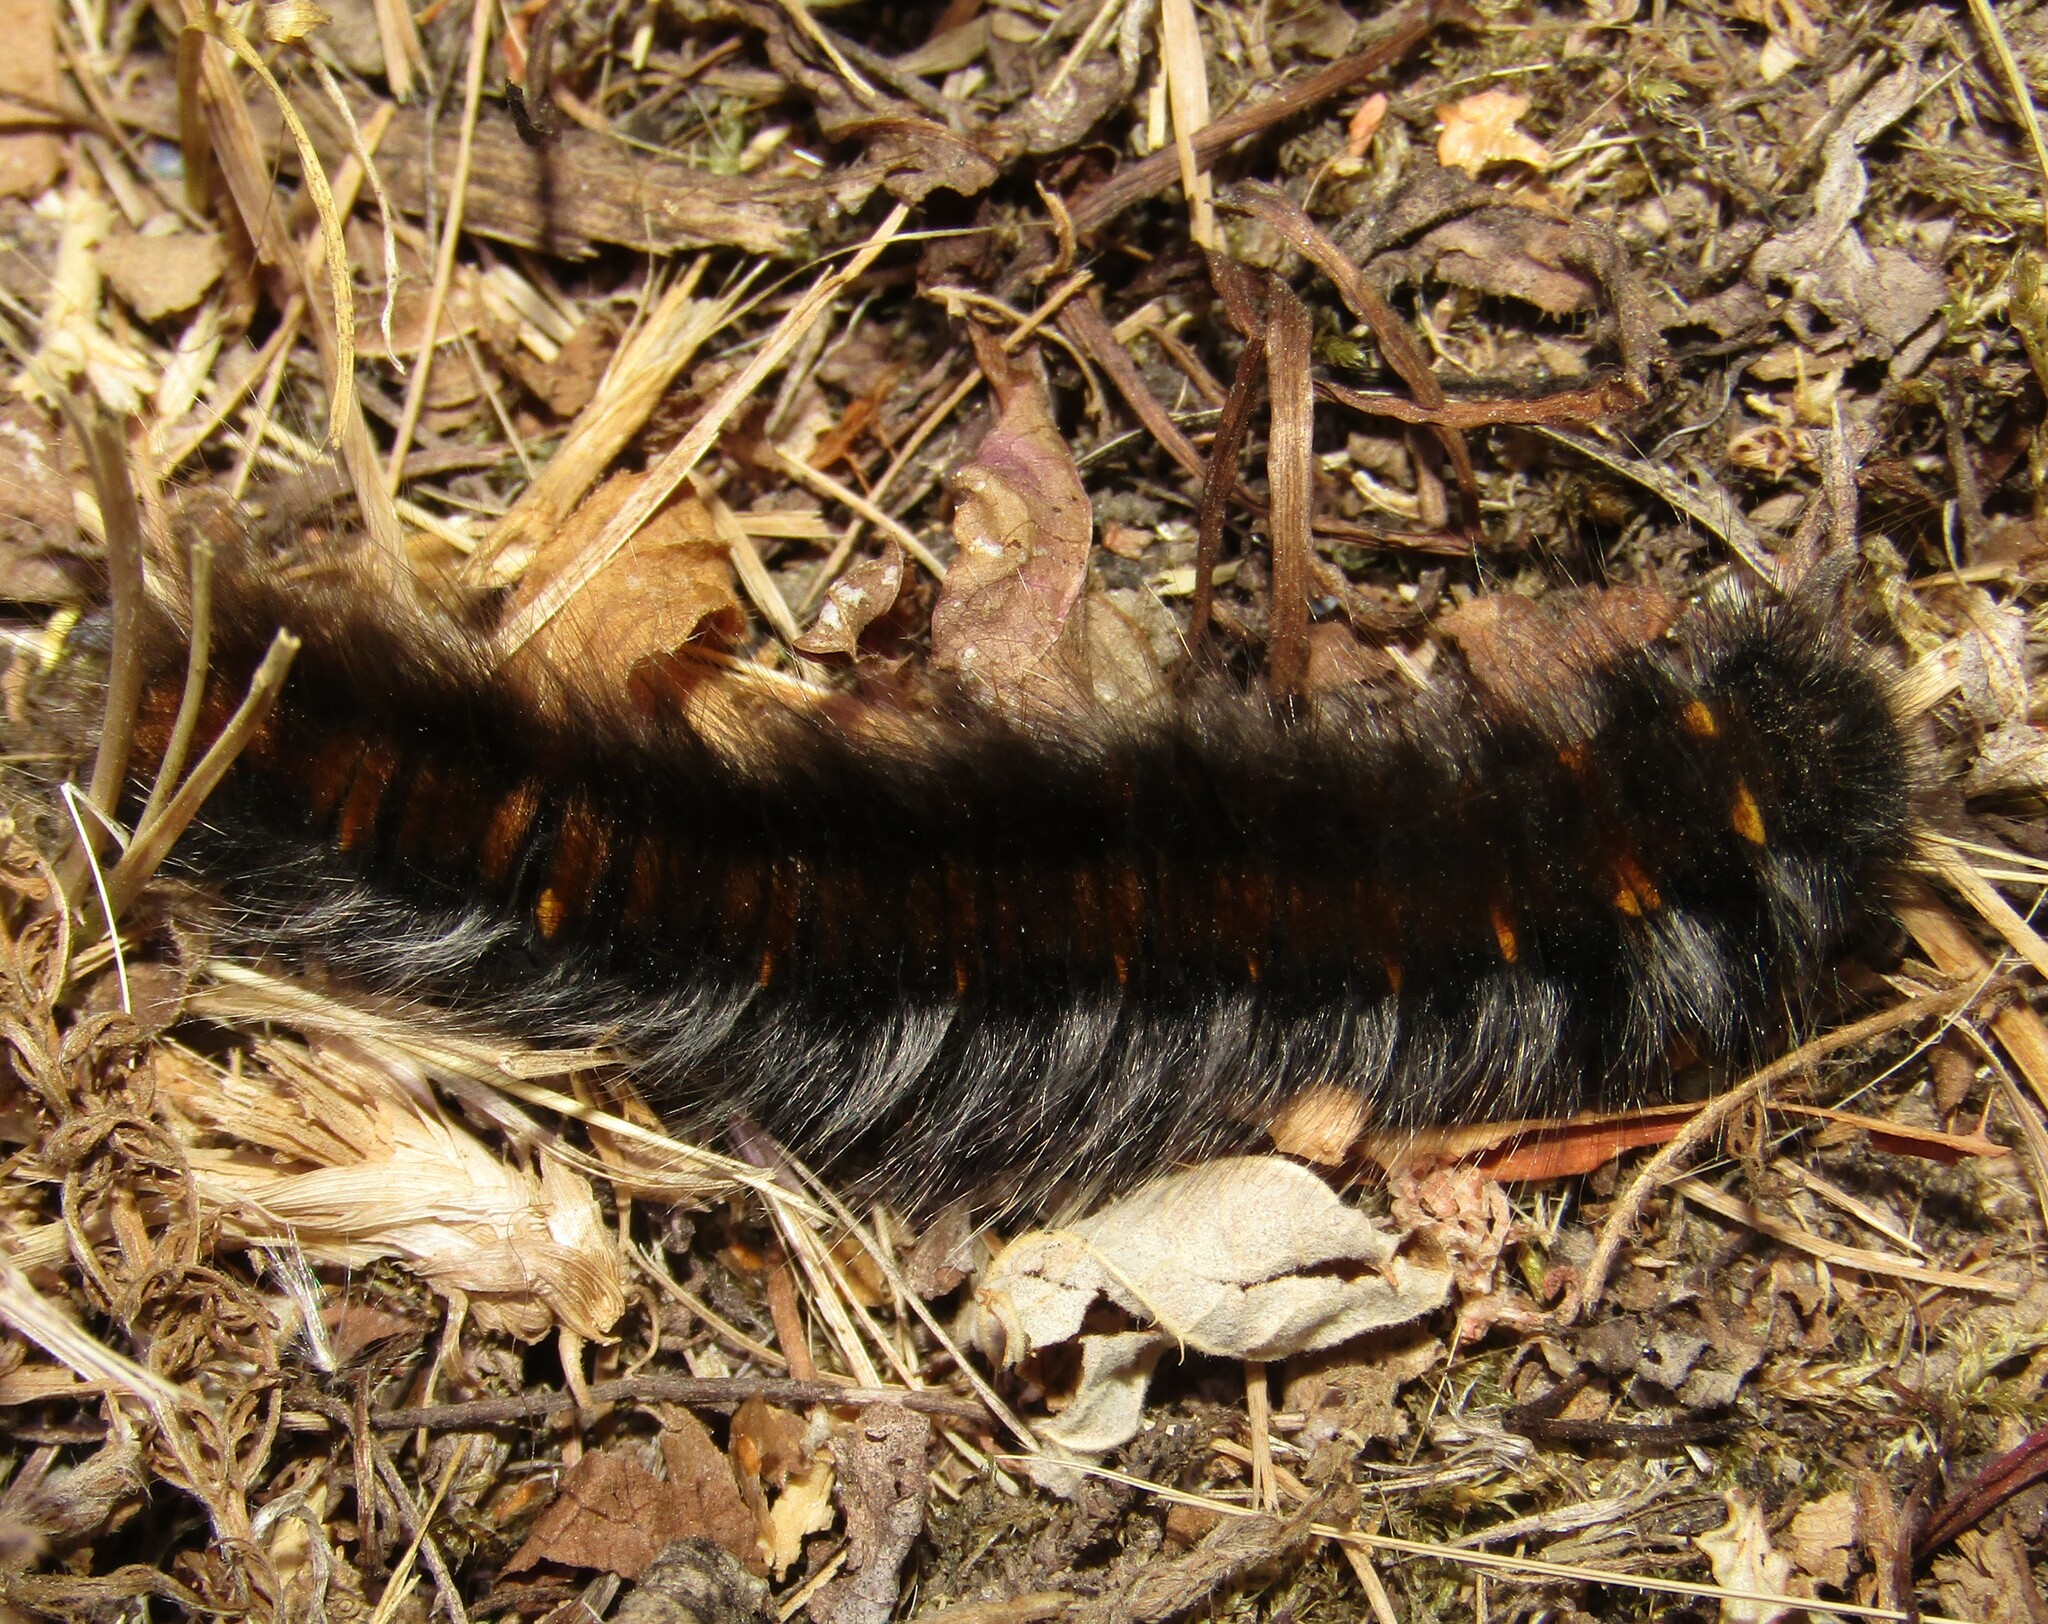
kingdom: Animalia
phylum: Arthropoda
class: Insecta
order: Lepidoptera
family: Lasiocampidae
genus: Macrothylacia
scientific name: Macrothylacia rubi
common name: Fox moth
